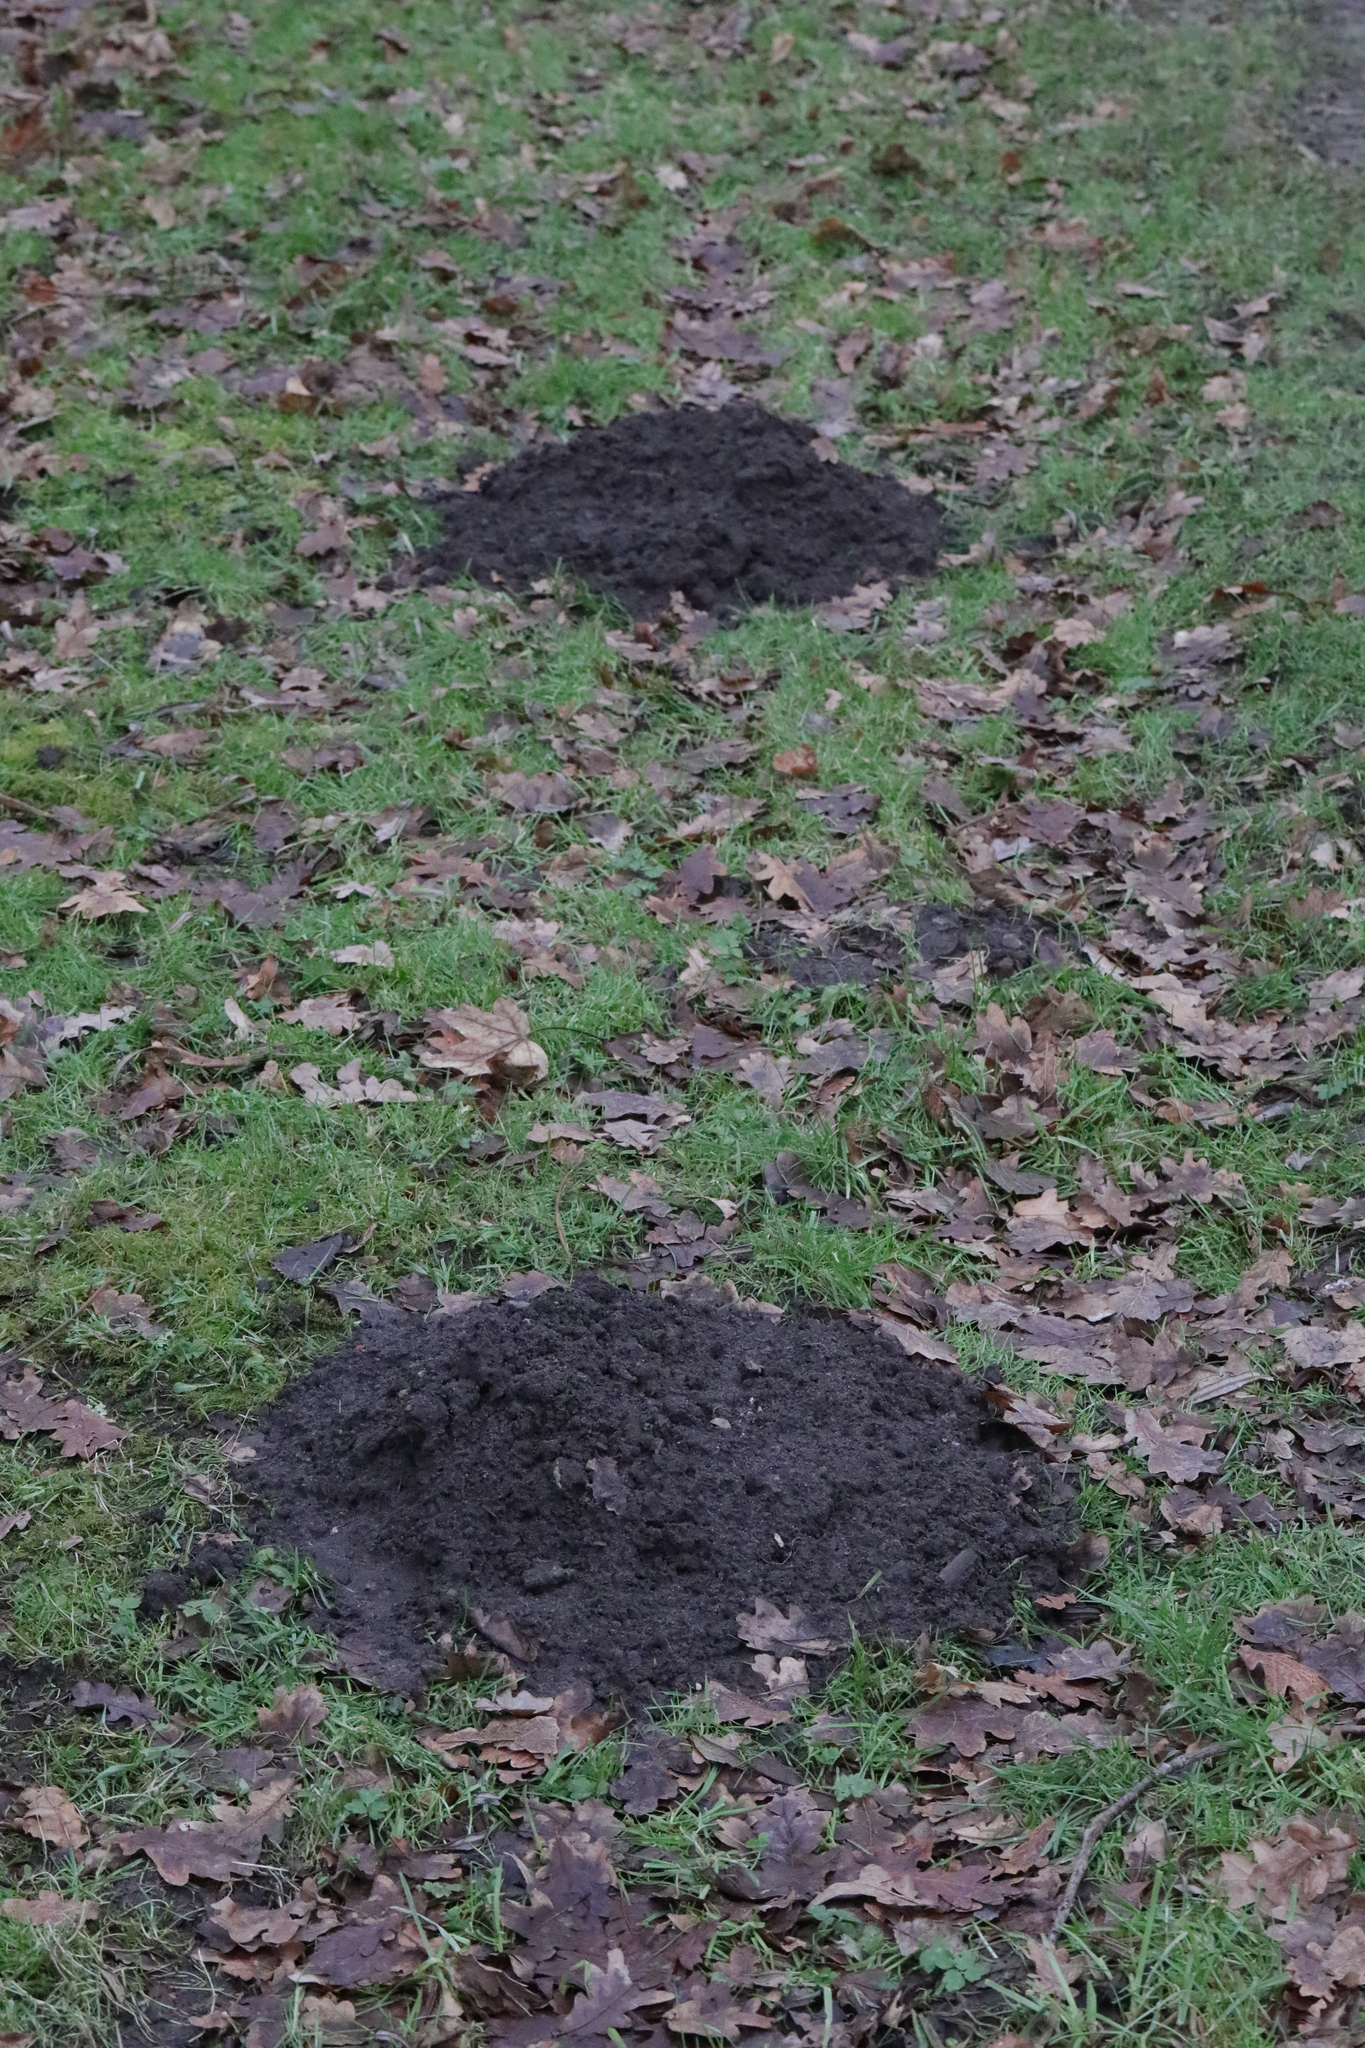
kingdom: Animalia
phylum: Chordata
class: Mammalia
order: Soricomorpha
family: Talpidae
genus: Talpa
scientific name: Talpa europaea
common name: European mole
